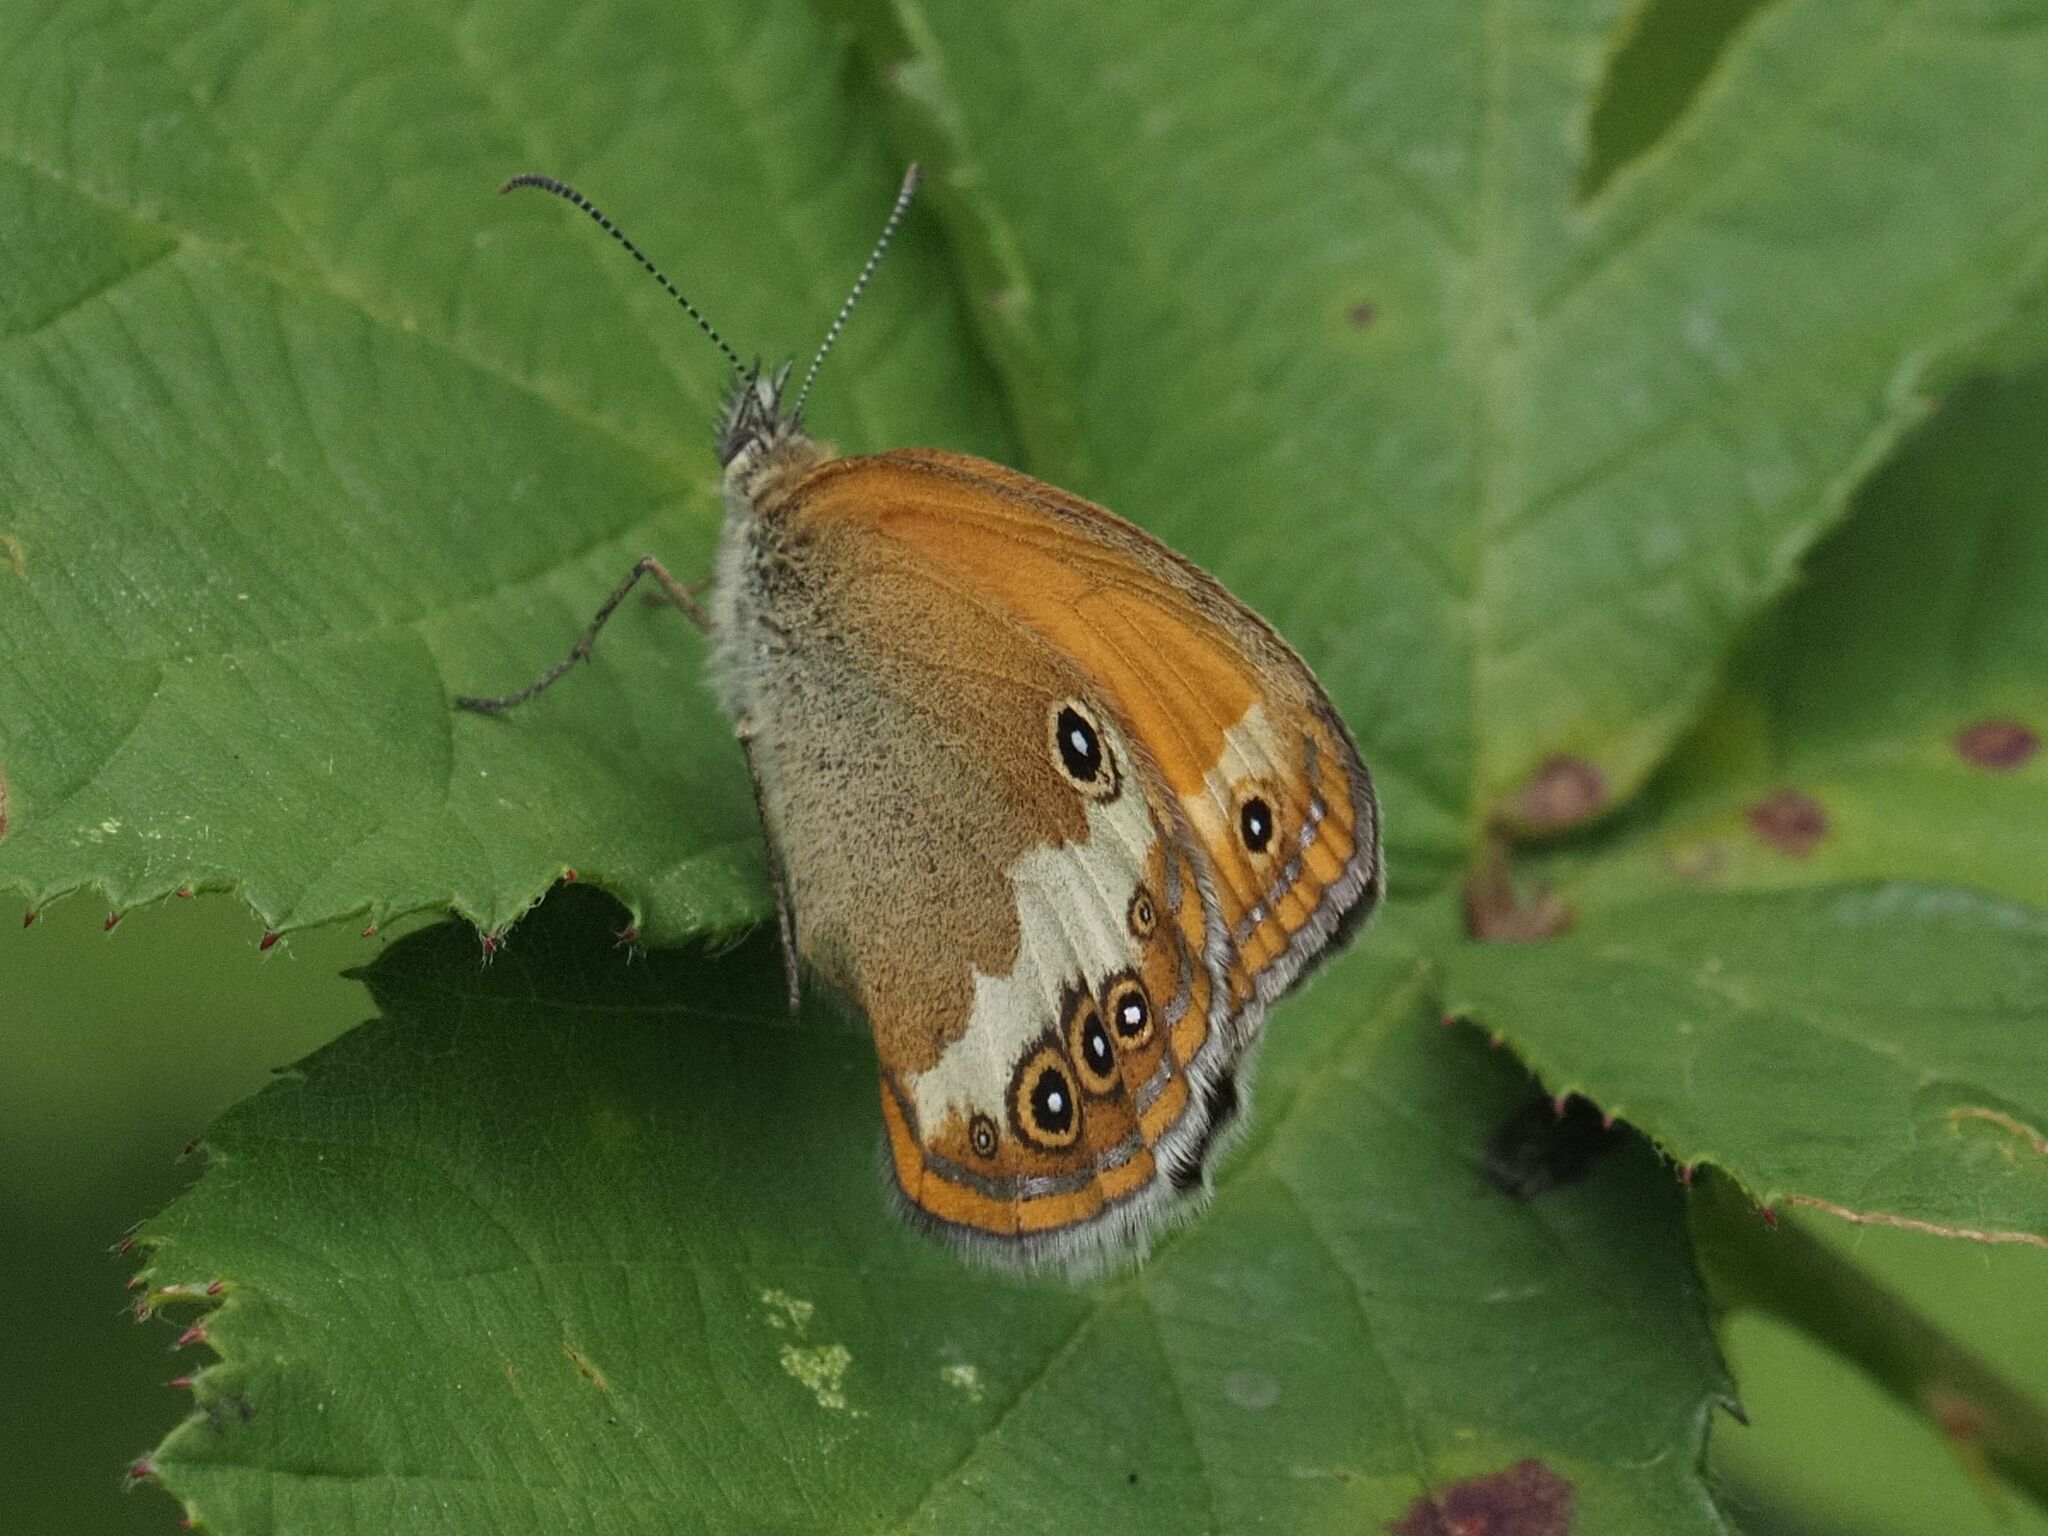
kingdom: Animalia
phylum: Arthropoda
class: Insecta
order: Lepidoptera
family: Nymphalidae
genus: Coenonympha
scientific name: Coenonympha arcania
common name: Pearly heath
